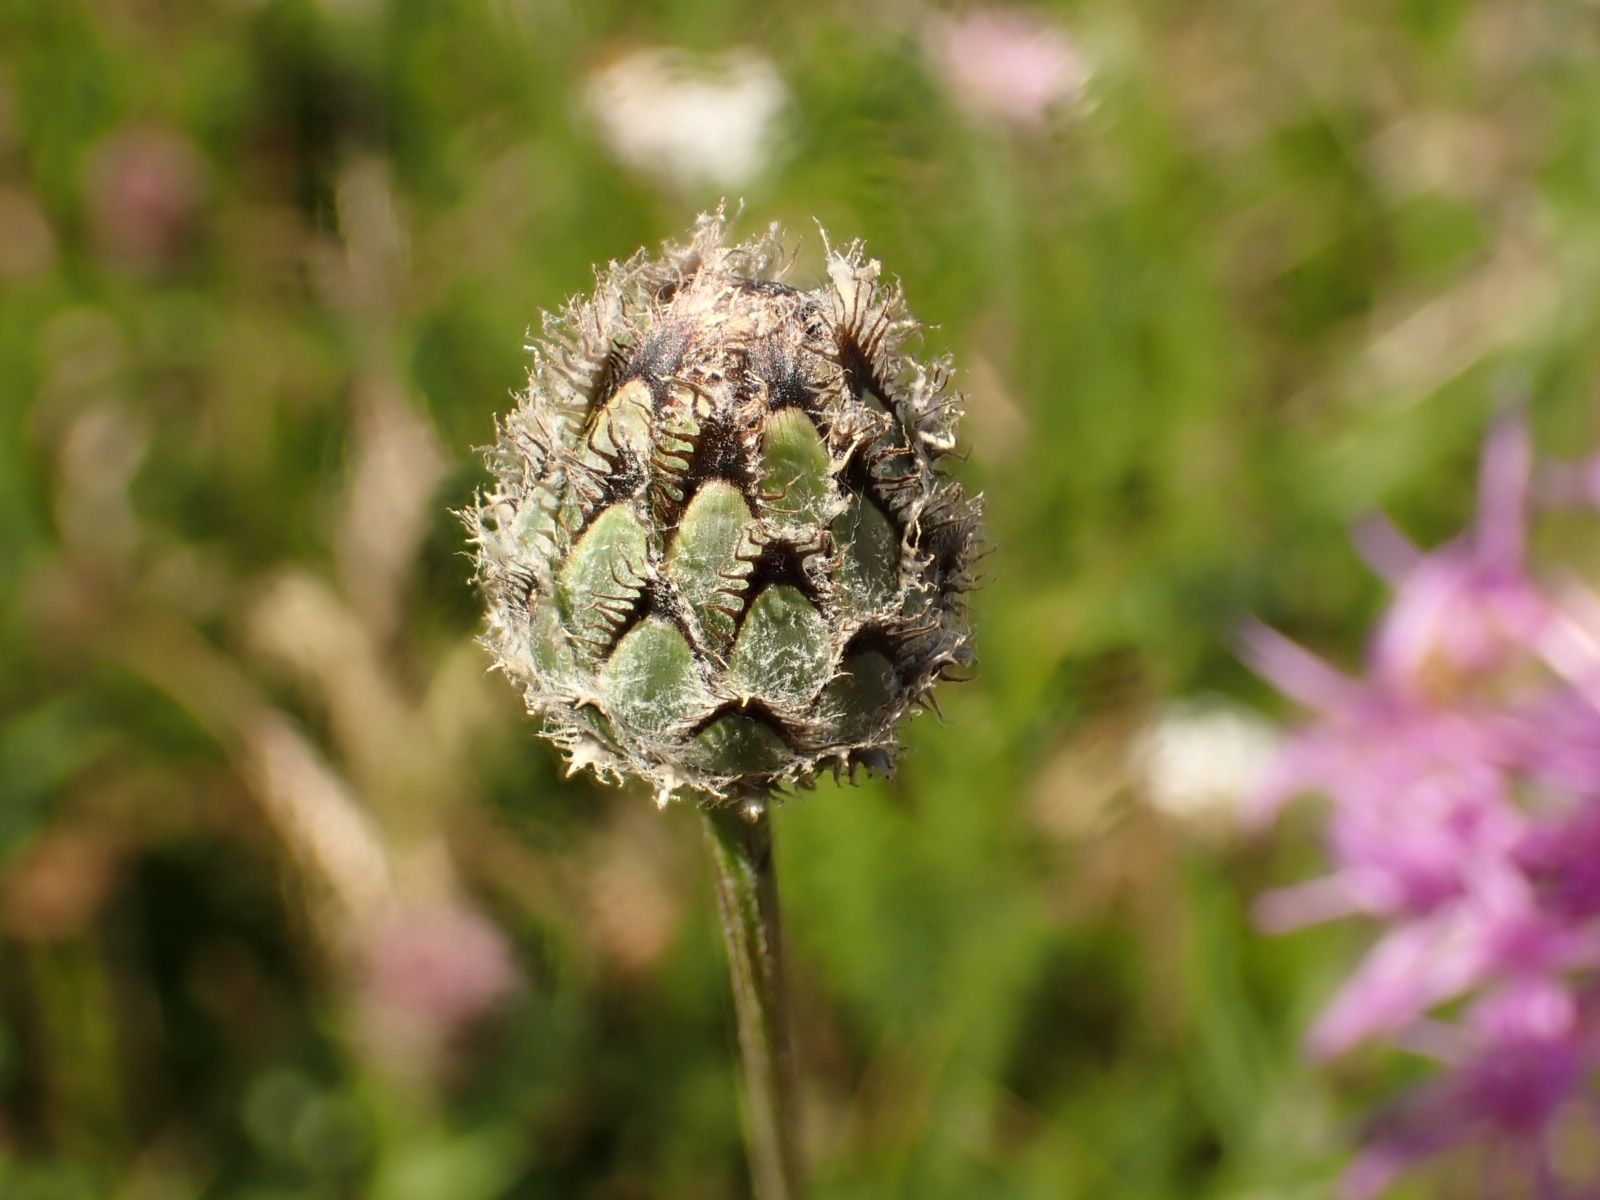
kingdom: Plantae
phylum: Tracheophyta
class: Magnoliopsida
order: Asterales
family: Asteraceae
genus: Centaurea
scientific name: Centaurea scabiosa
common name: Greater knapweed
